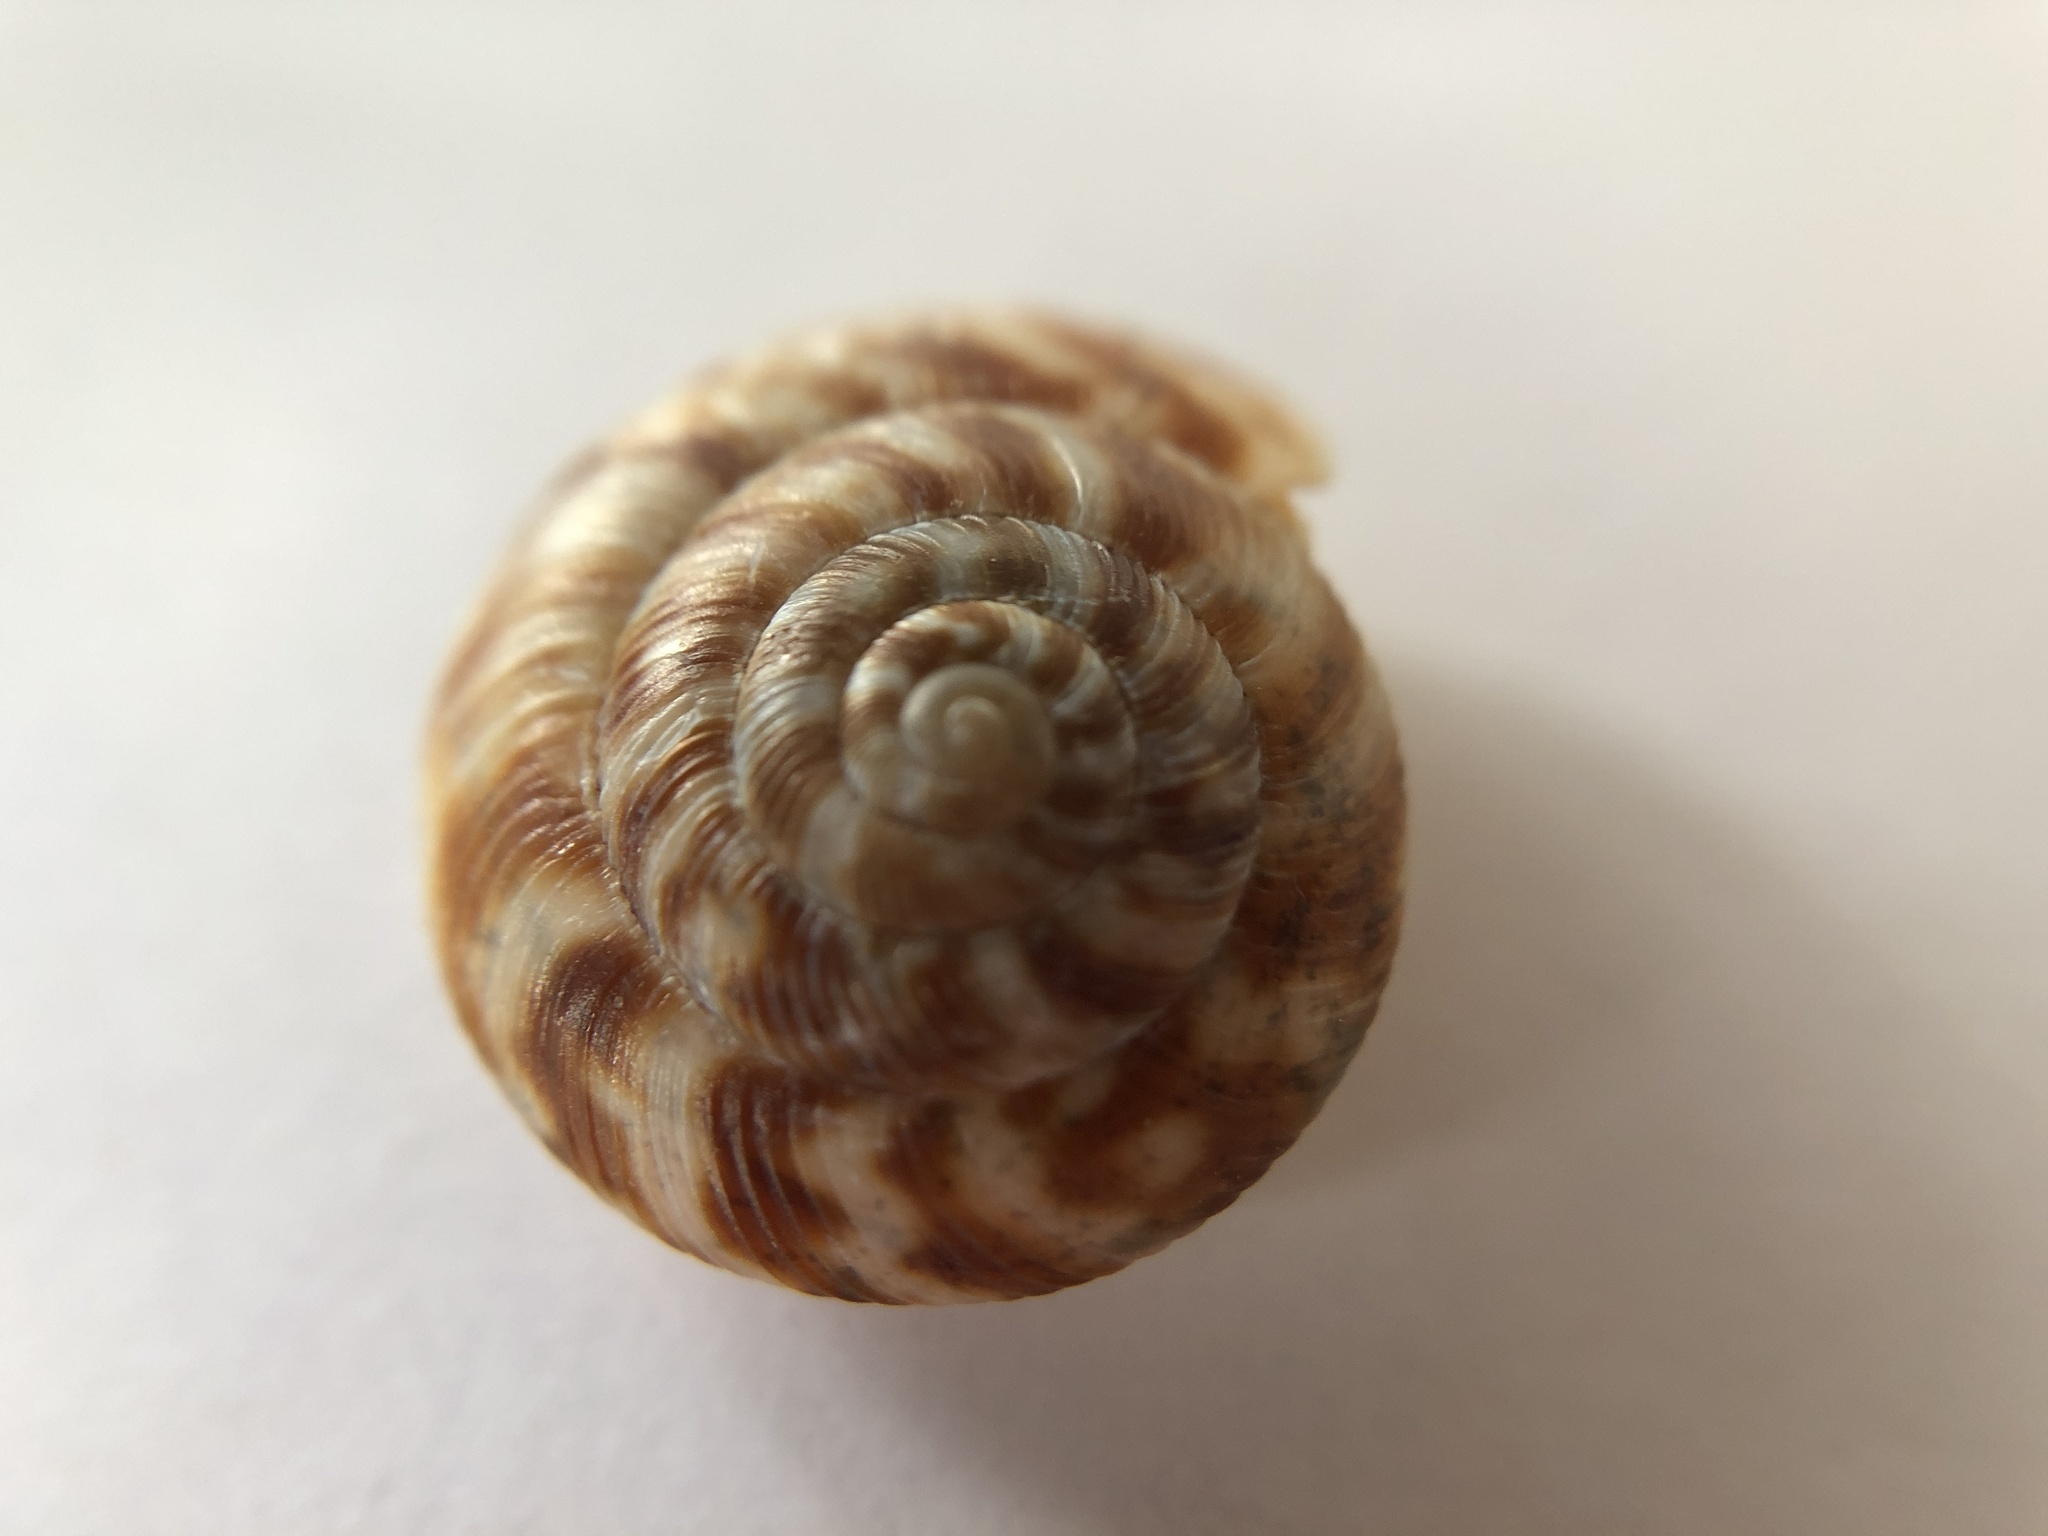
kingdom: Animalia
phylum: Mollusca
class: Gastropoda
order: Stylommatophora
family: Discidae
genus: Anguispira
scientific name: Anguispira alternata
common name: Flamed tigersnail
